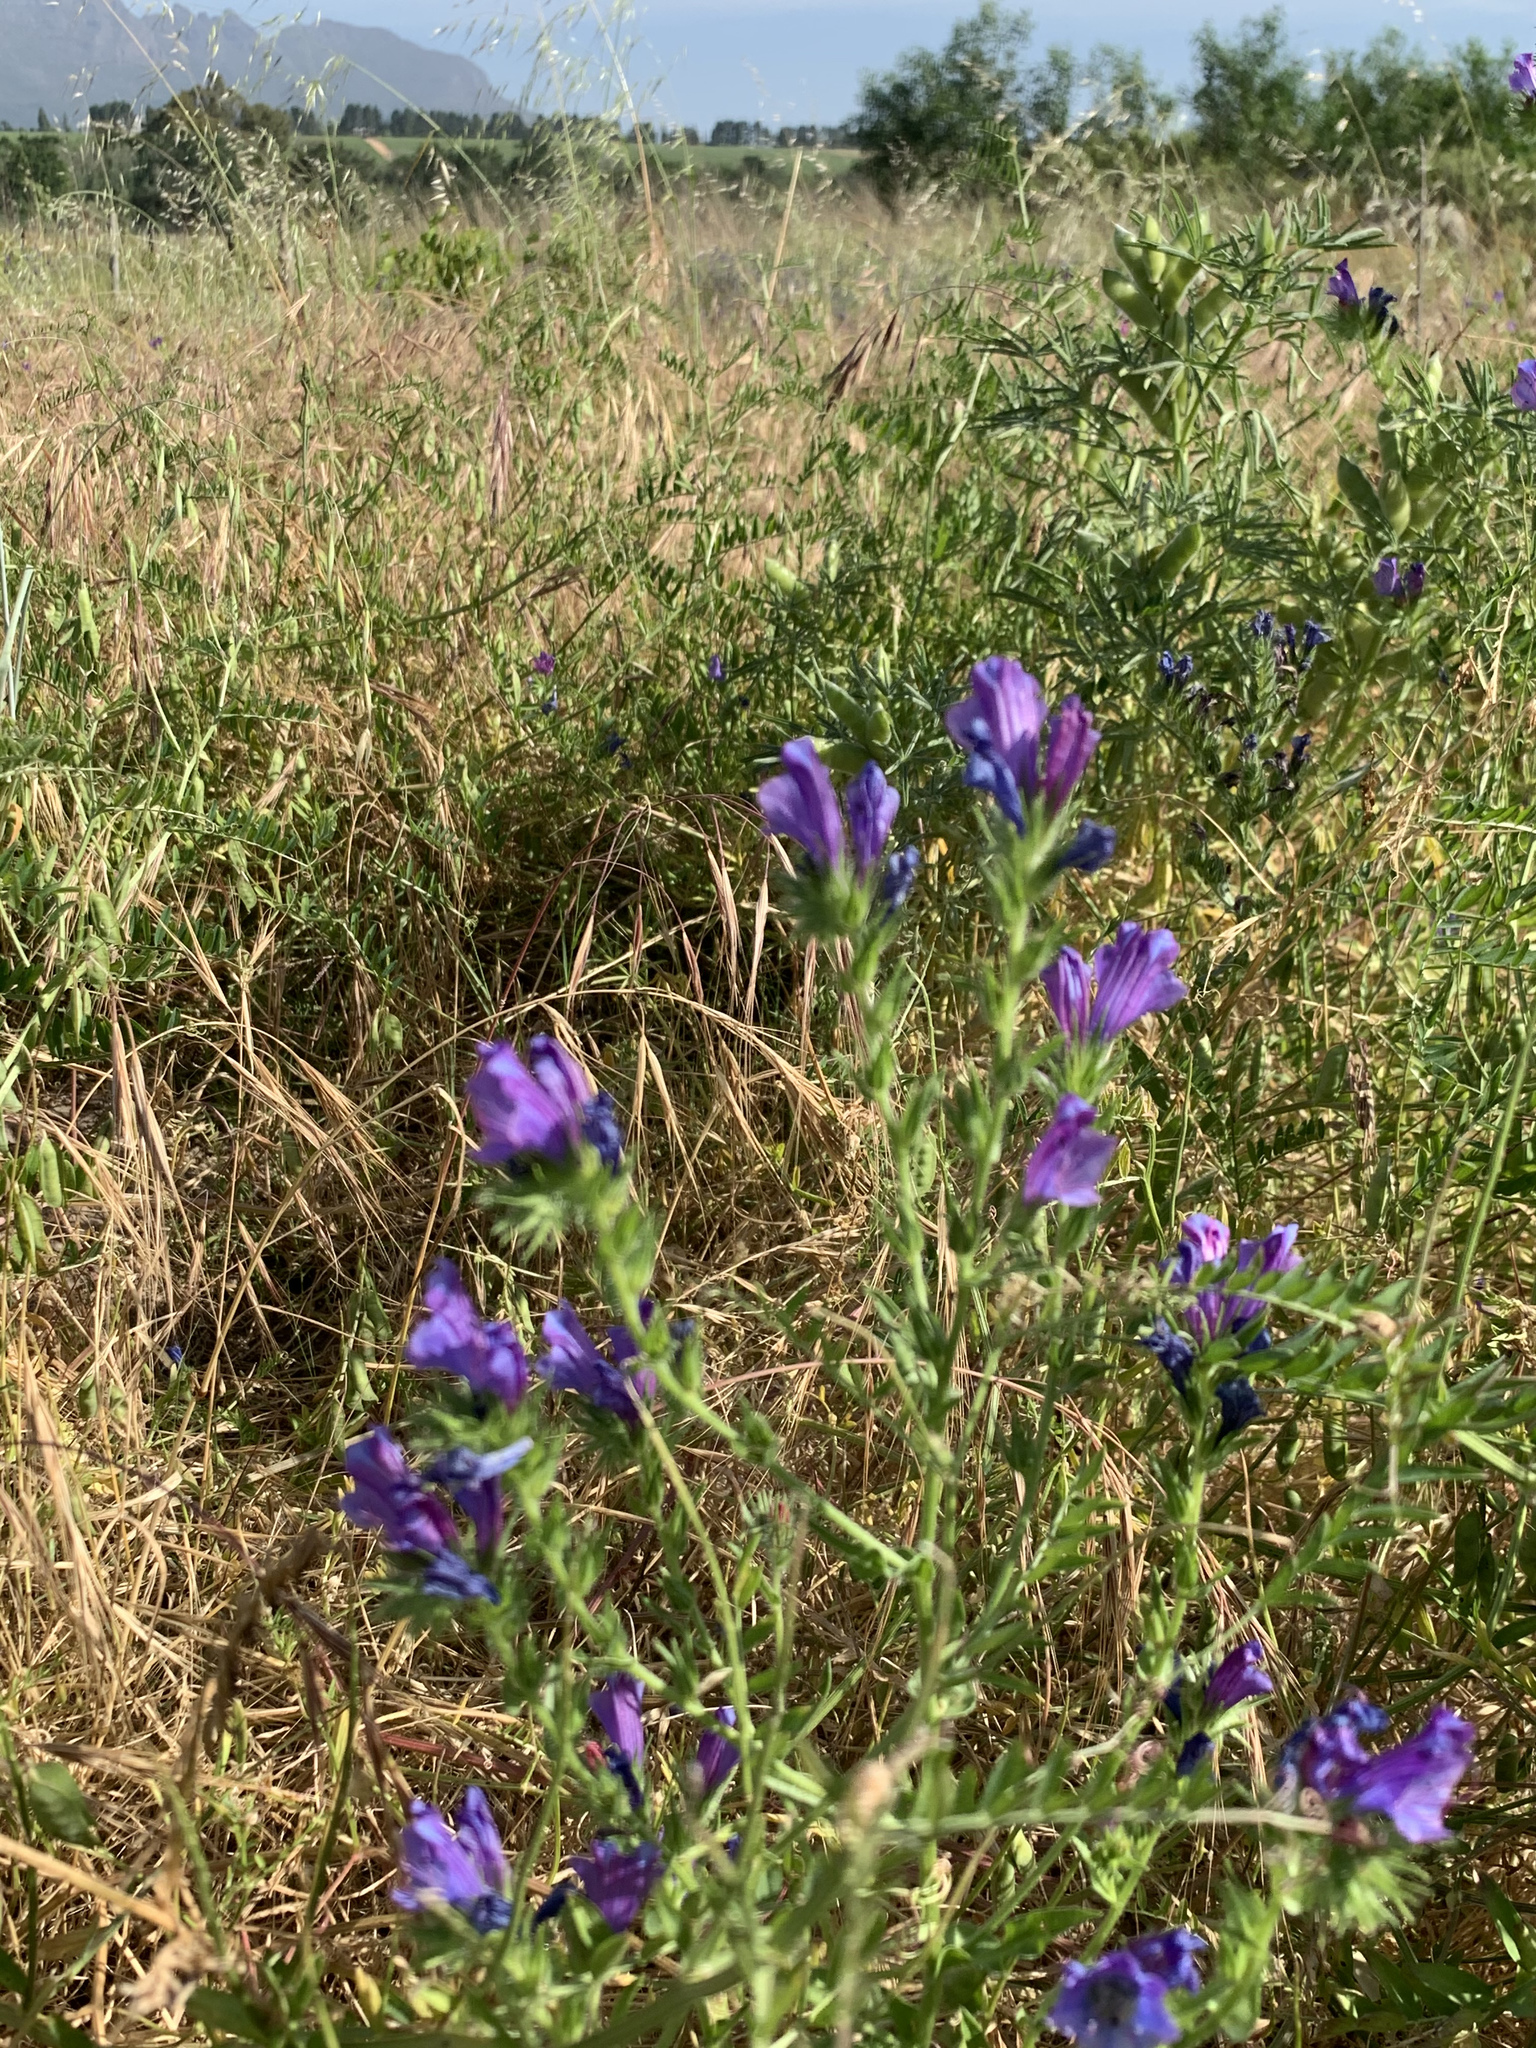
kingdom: Plantae
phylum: Tracheophyta
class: Magnoliopsida
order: Boraginales
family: Boraginaceae
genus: Echium
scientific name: Echium plantagineum
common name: Purple viper's-bugloss
